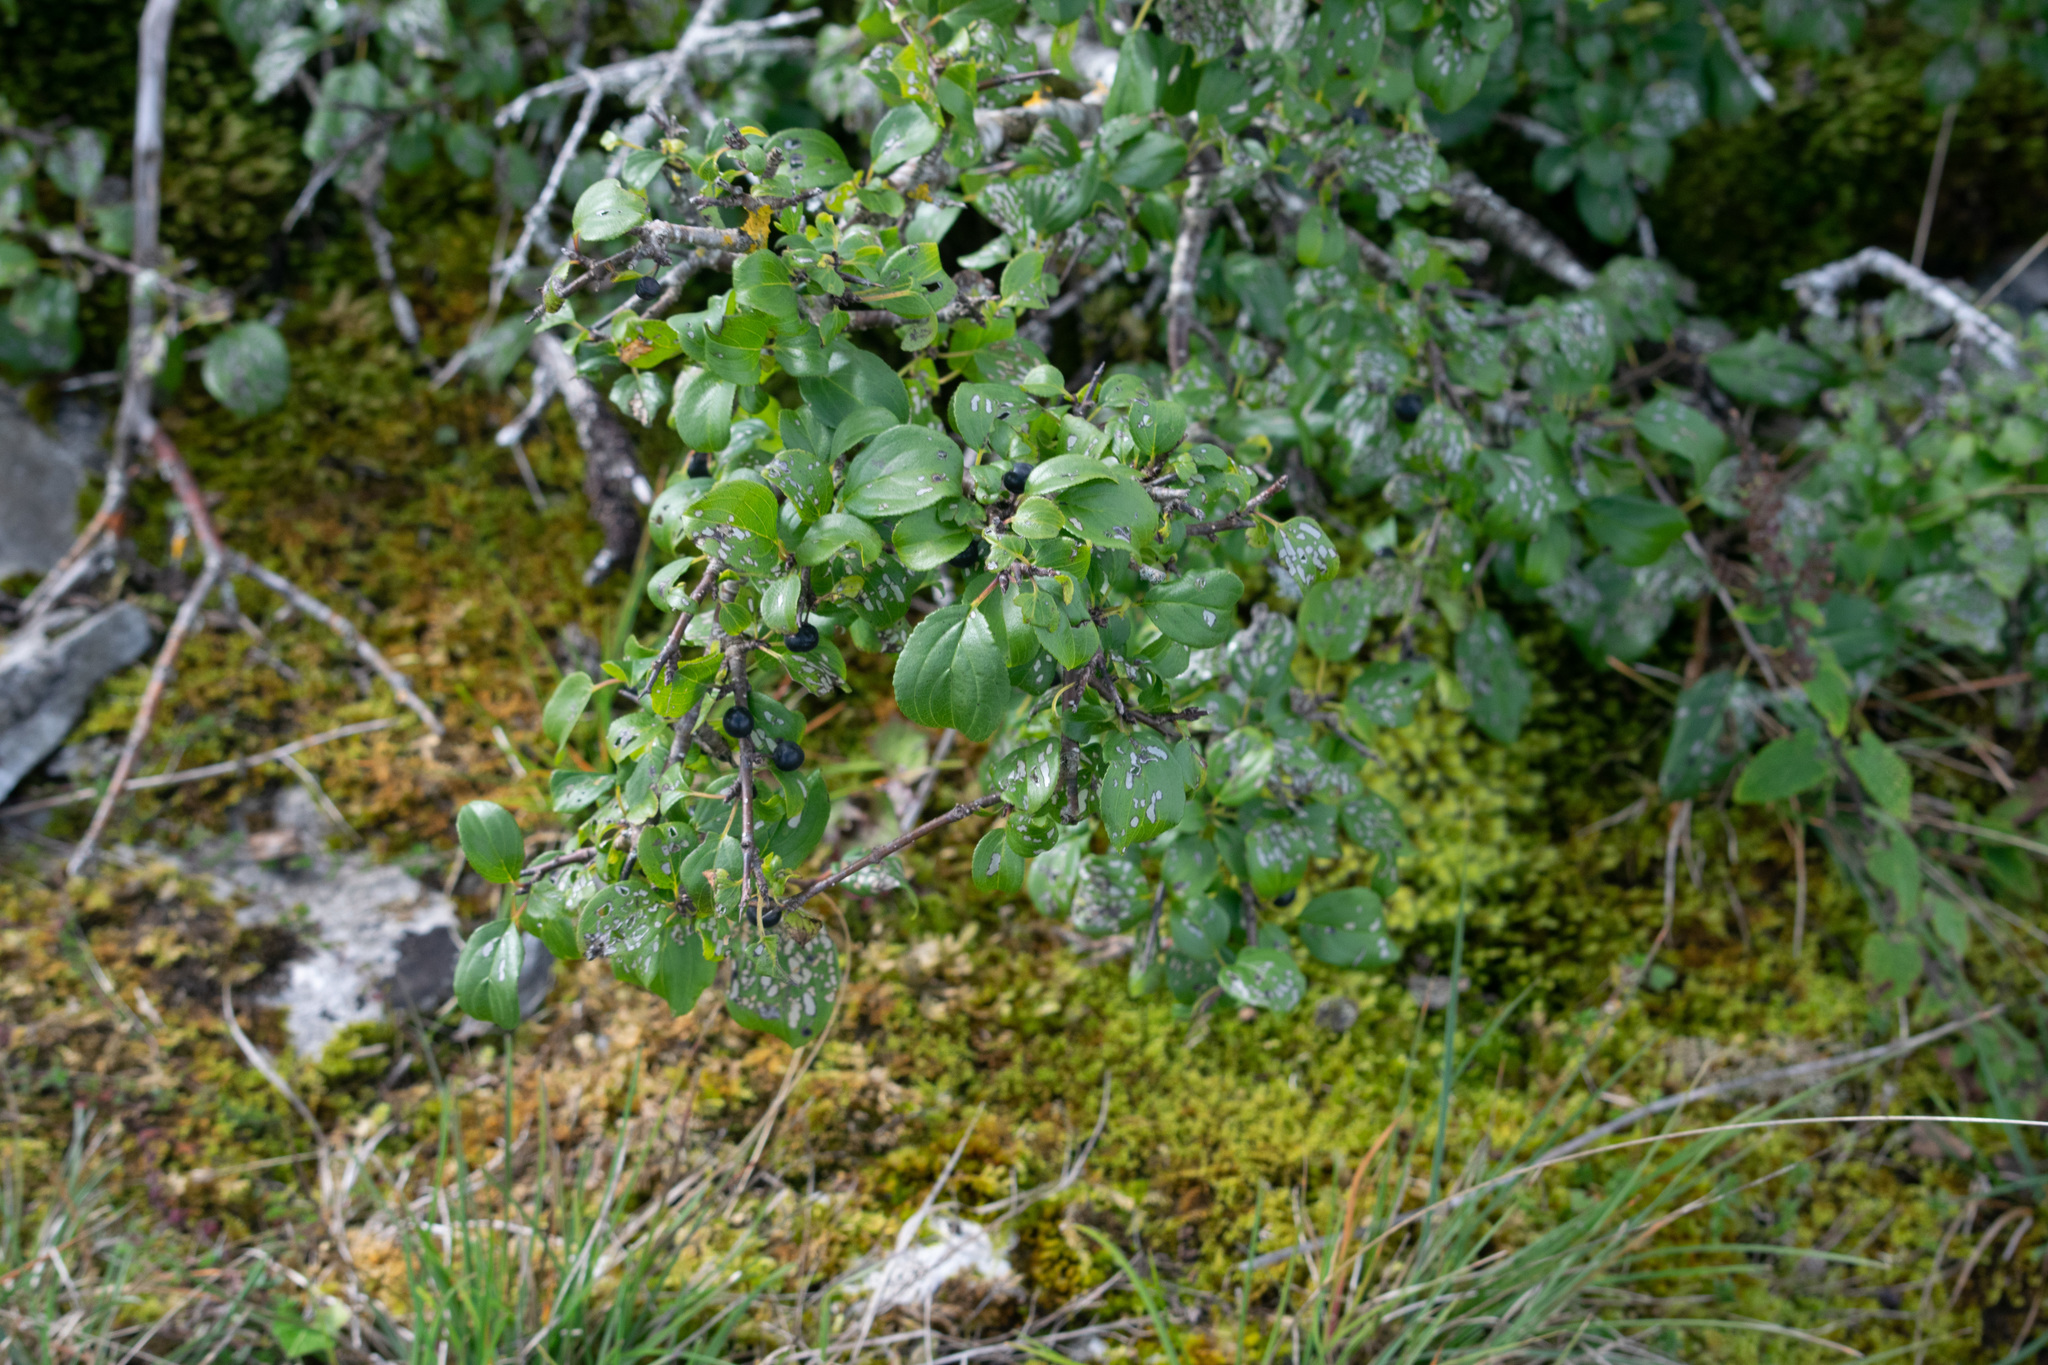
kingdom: Plantae
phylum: Tracheophyta
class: Magnoliopsida
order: Rosales
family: Rhamnaceae
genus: Rhamnus
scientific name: Rhamnus cathartica
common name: Common buckthorn
